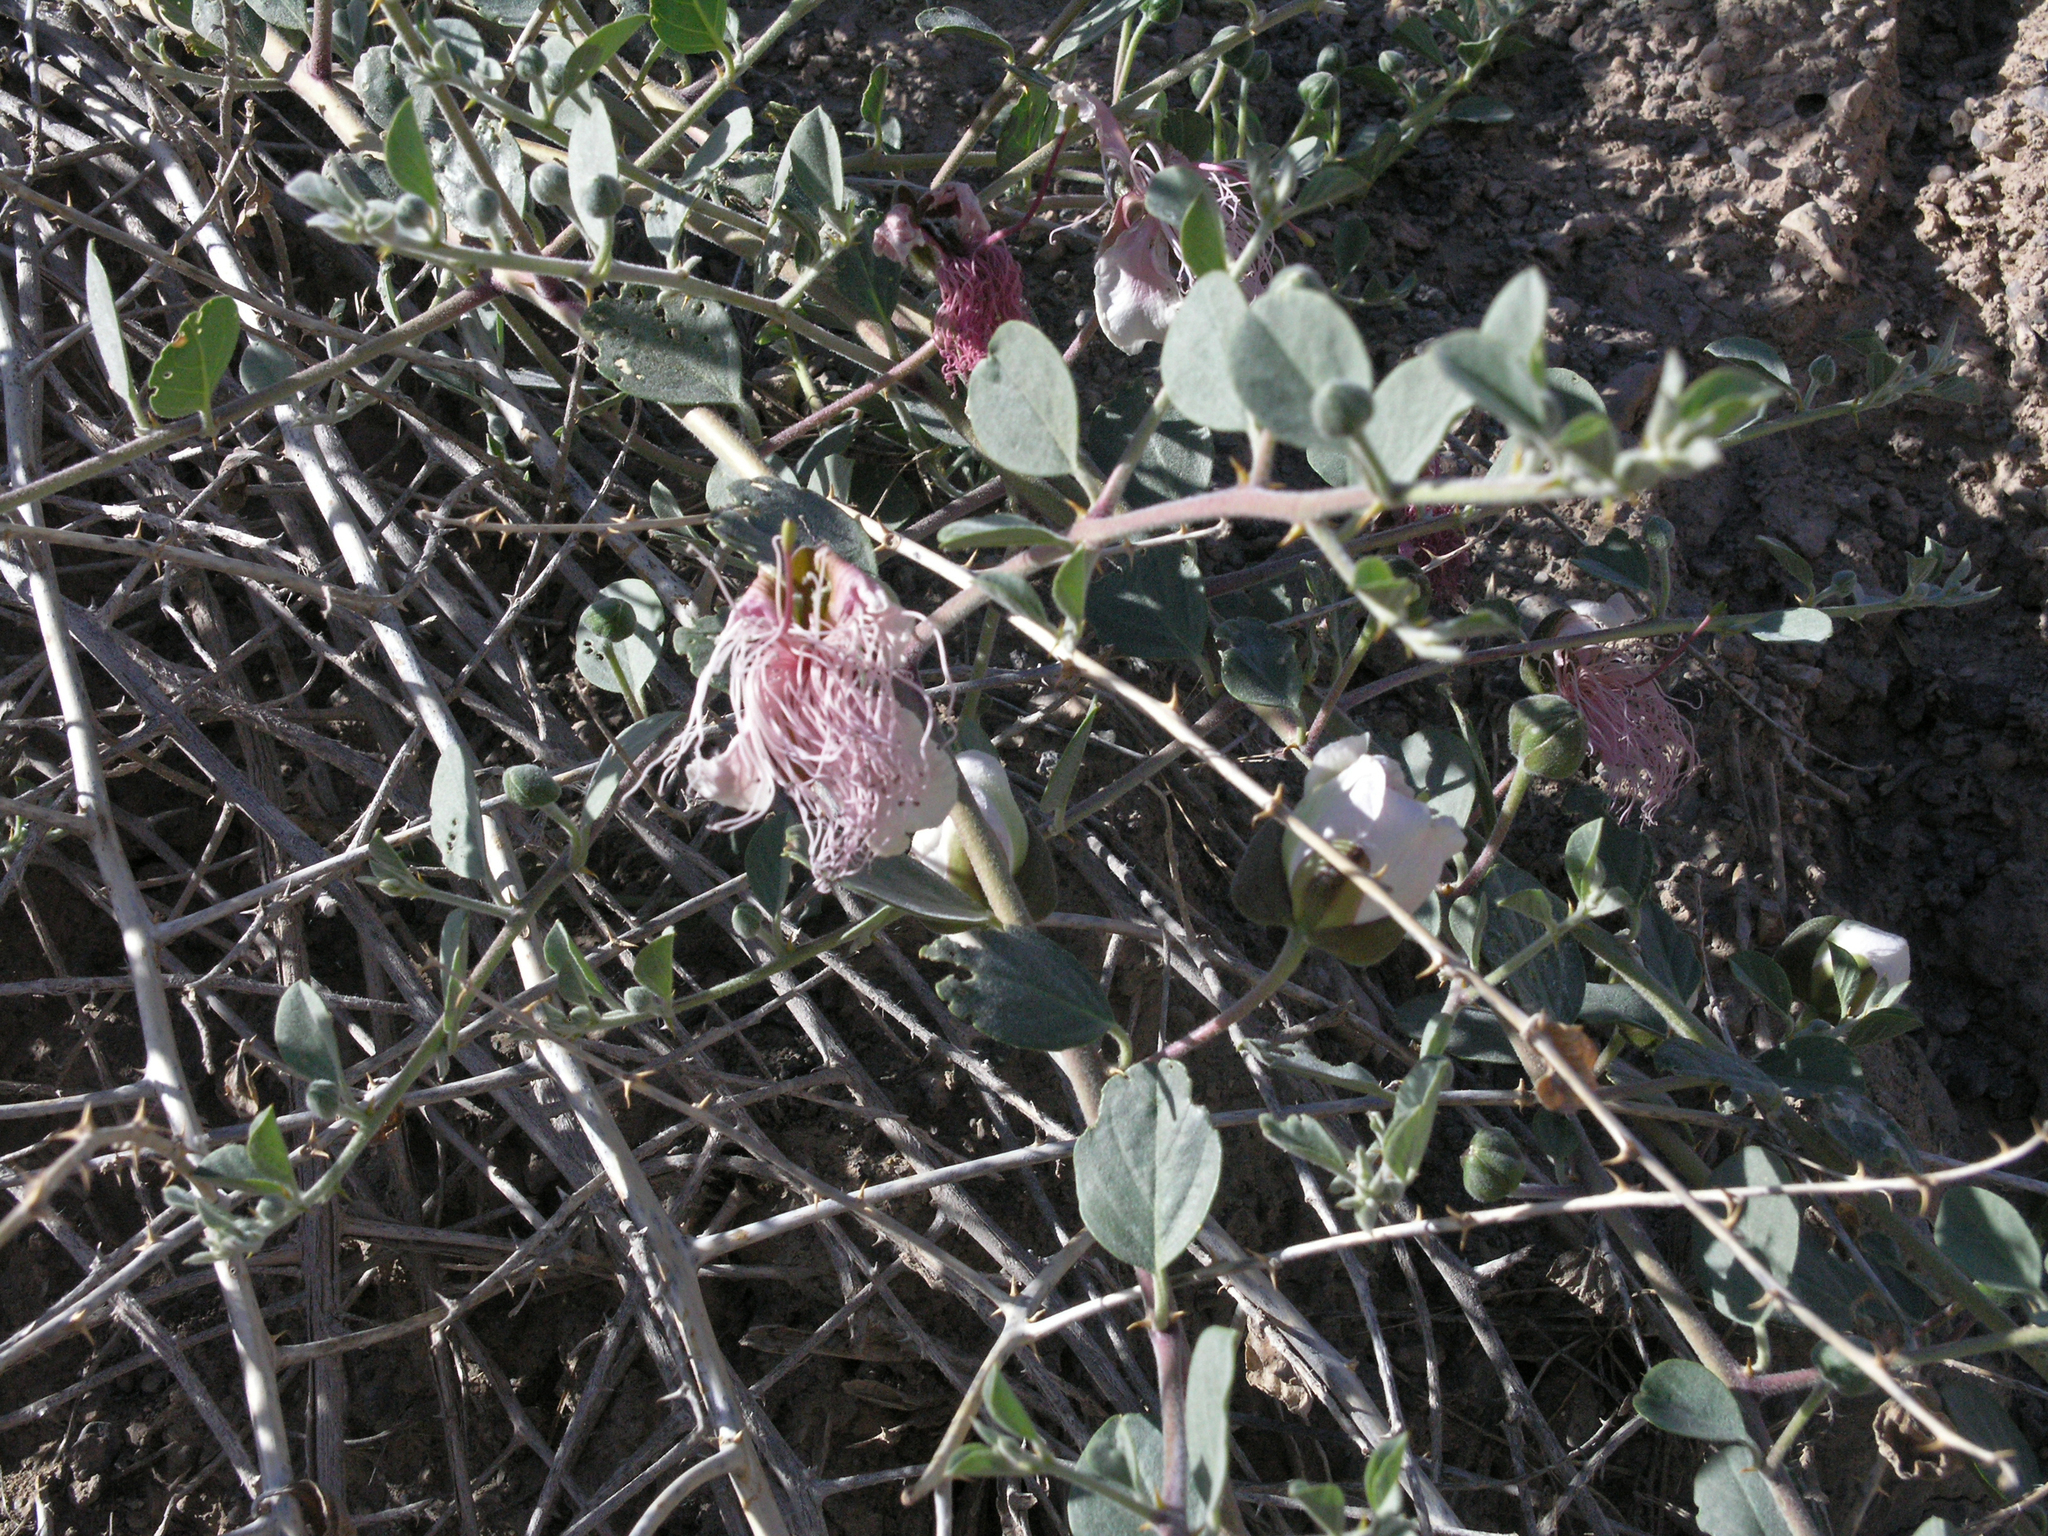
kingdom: Plantae
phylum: Tracheophyta
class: Magnoliopsida
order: Brassicales
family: Capparaceae
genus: Capparis
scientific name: Capparis spinosa
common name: Caper
